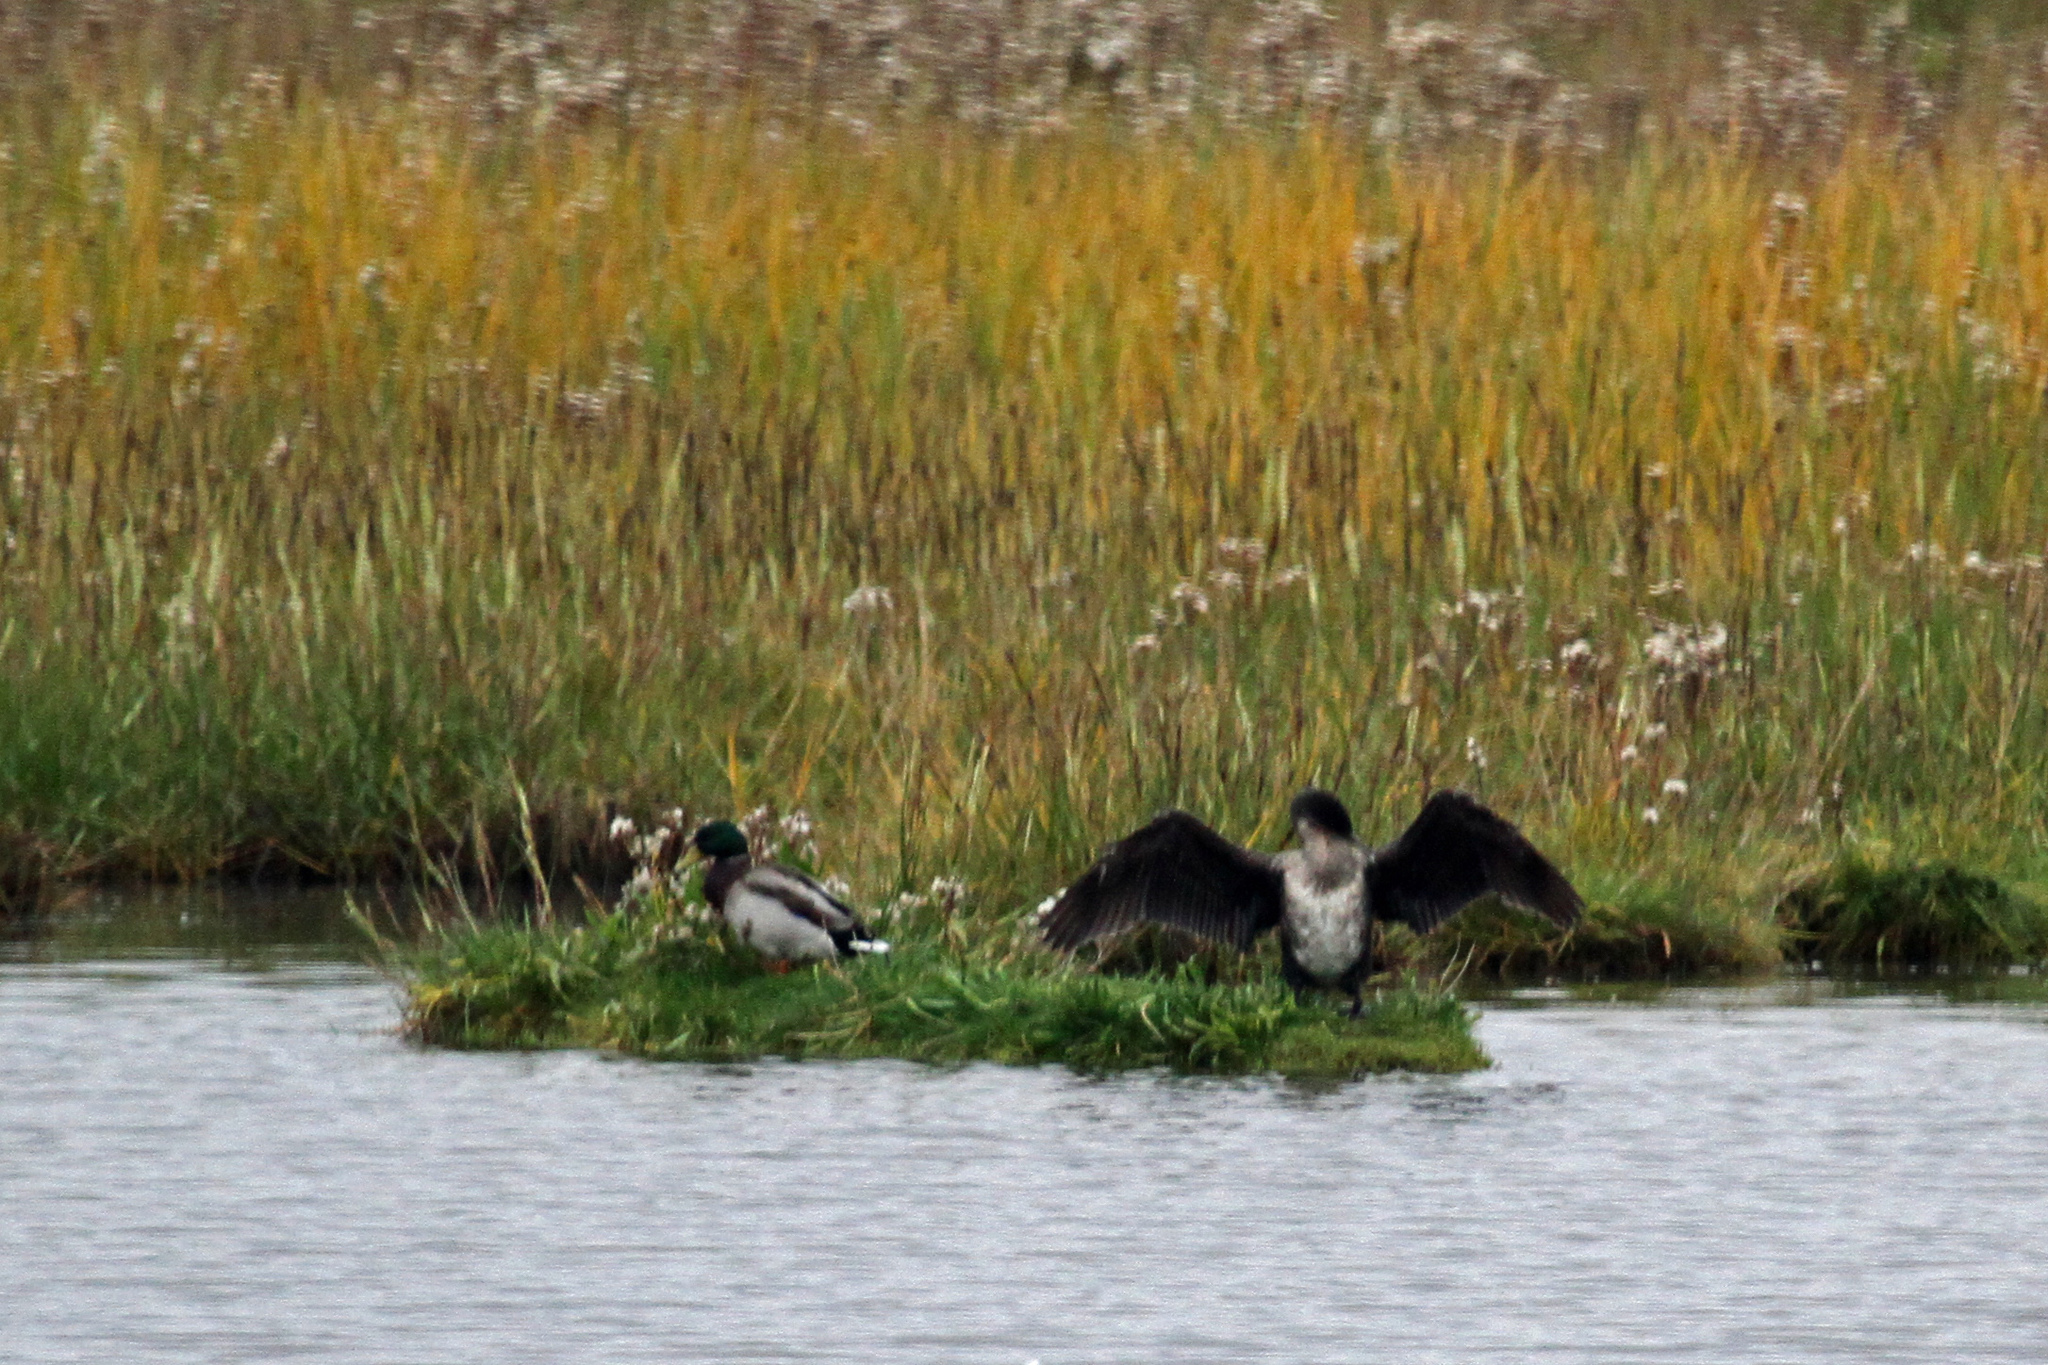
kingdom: Animalia
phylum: Chordata
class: Aves
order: Suliformes
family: Phalacrocoracidae
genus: Phalacrocorax
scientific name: Phalacrocorax carbo
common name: Great cormorant
